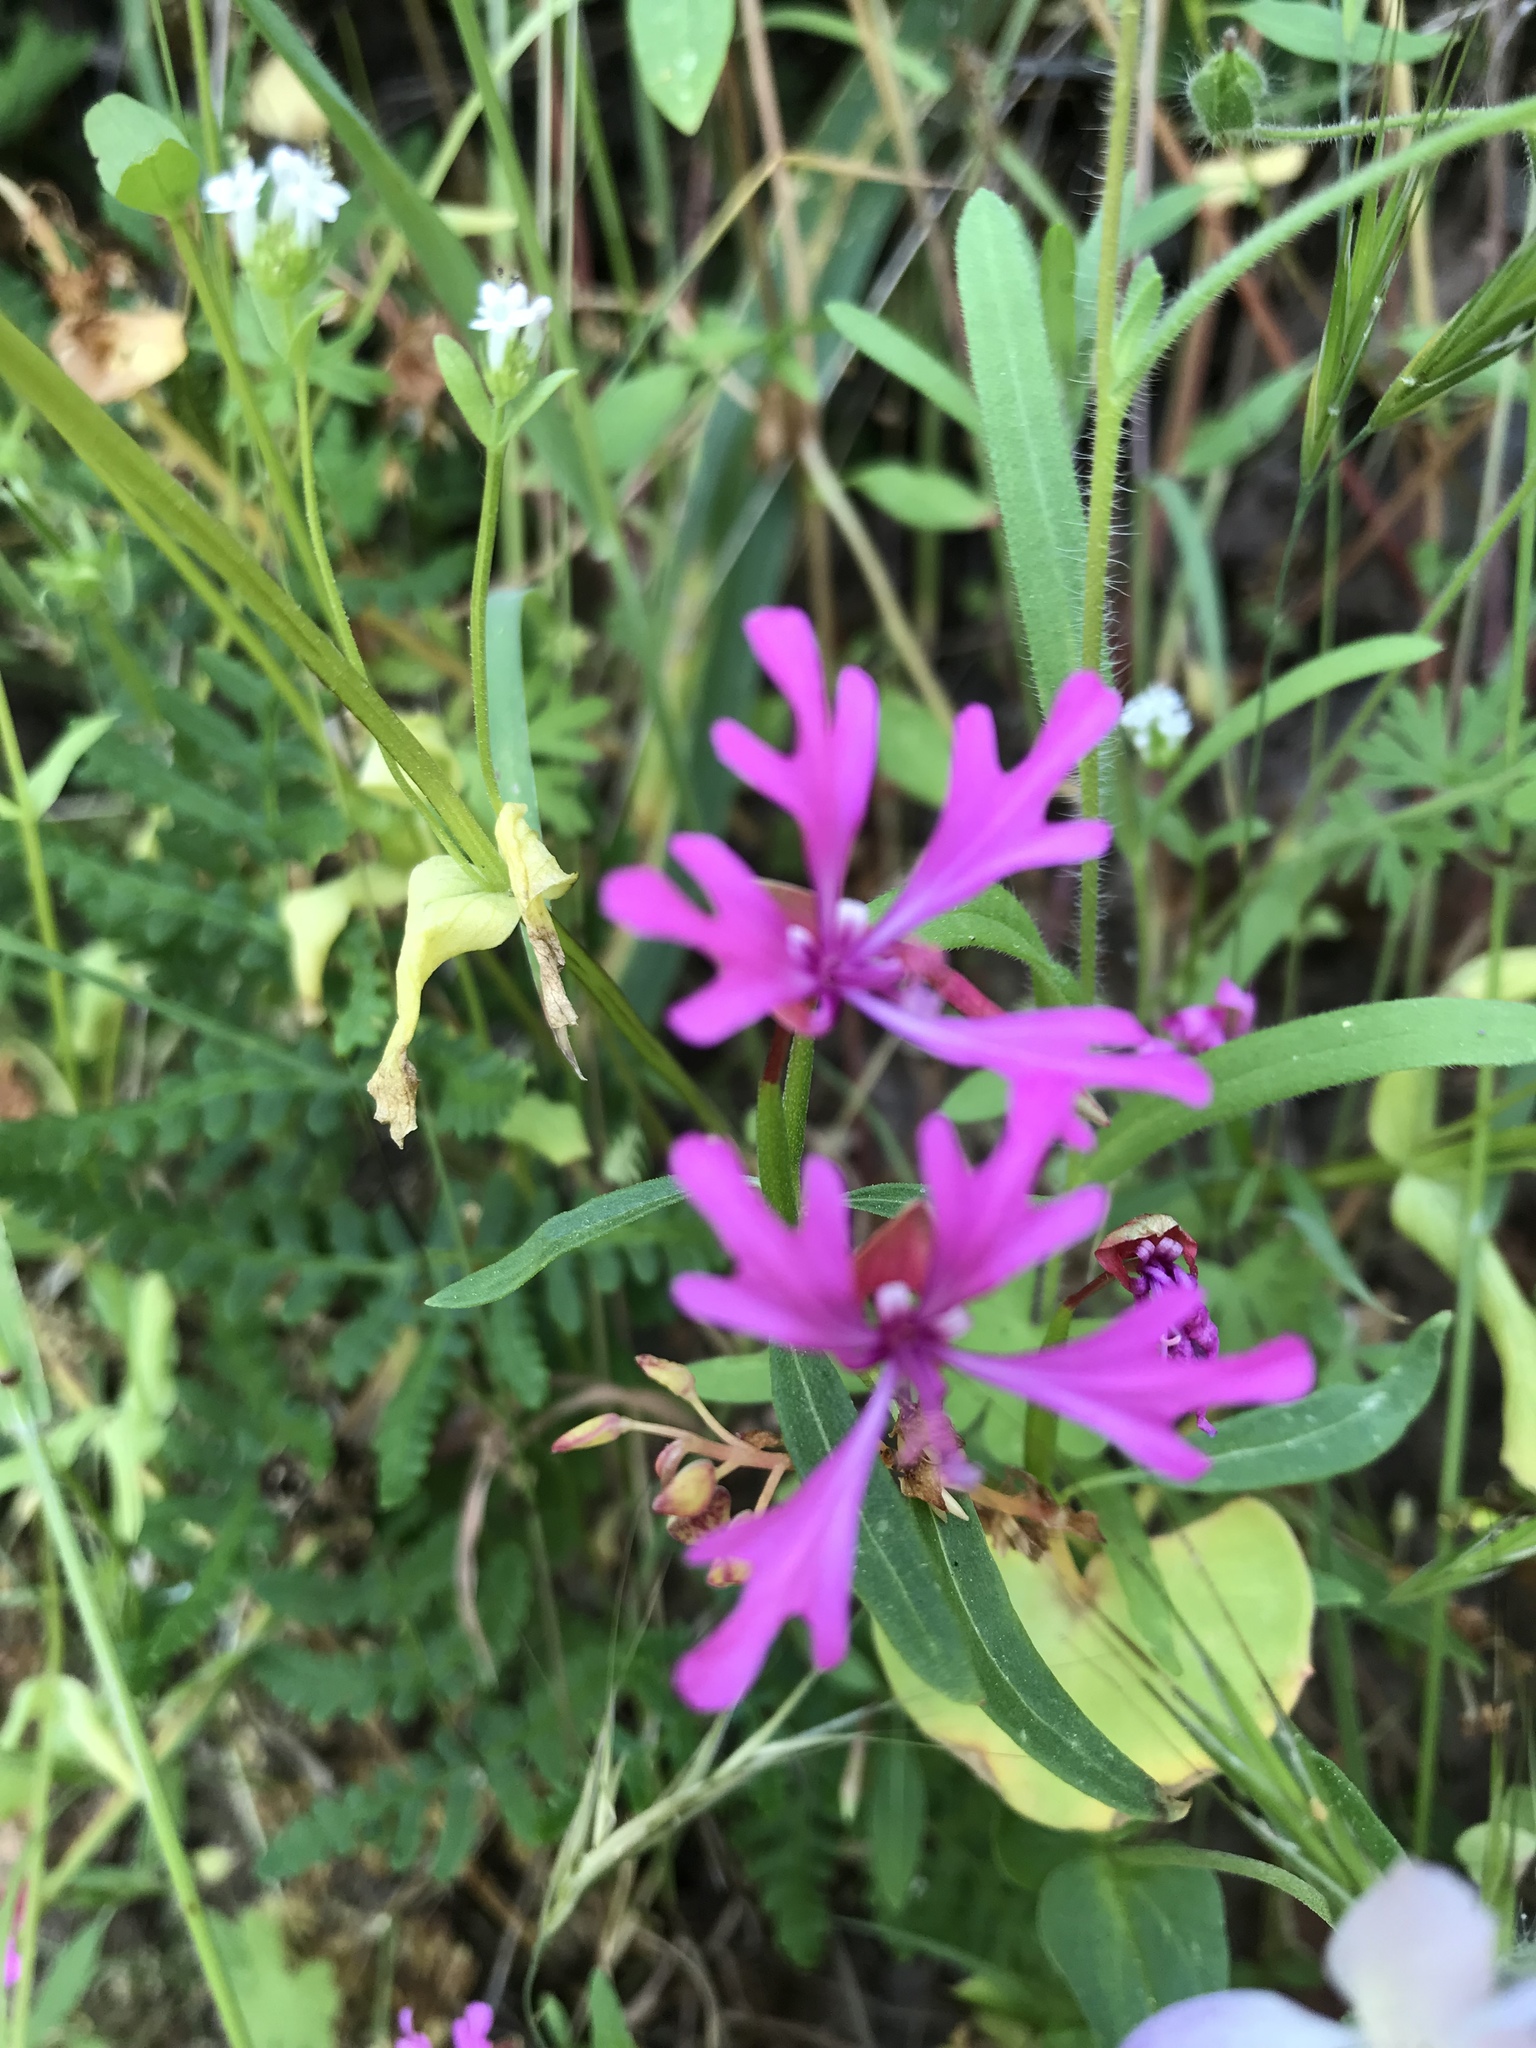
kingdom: Plantae
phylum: Tracheophyta
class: Magnoliopsida
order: Myrtales
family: Onagraceae
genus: Clarkia
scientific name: Clarkia concinna
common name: Red-ribbons
